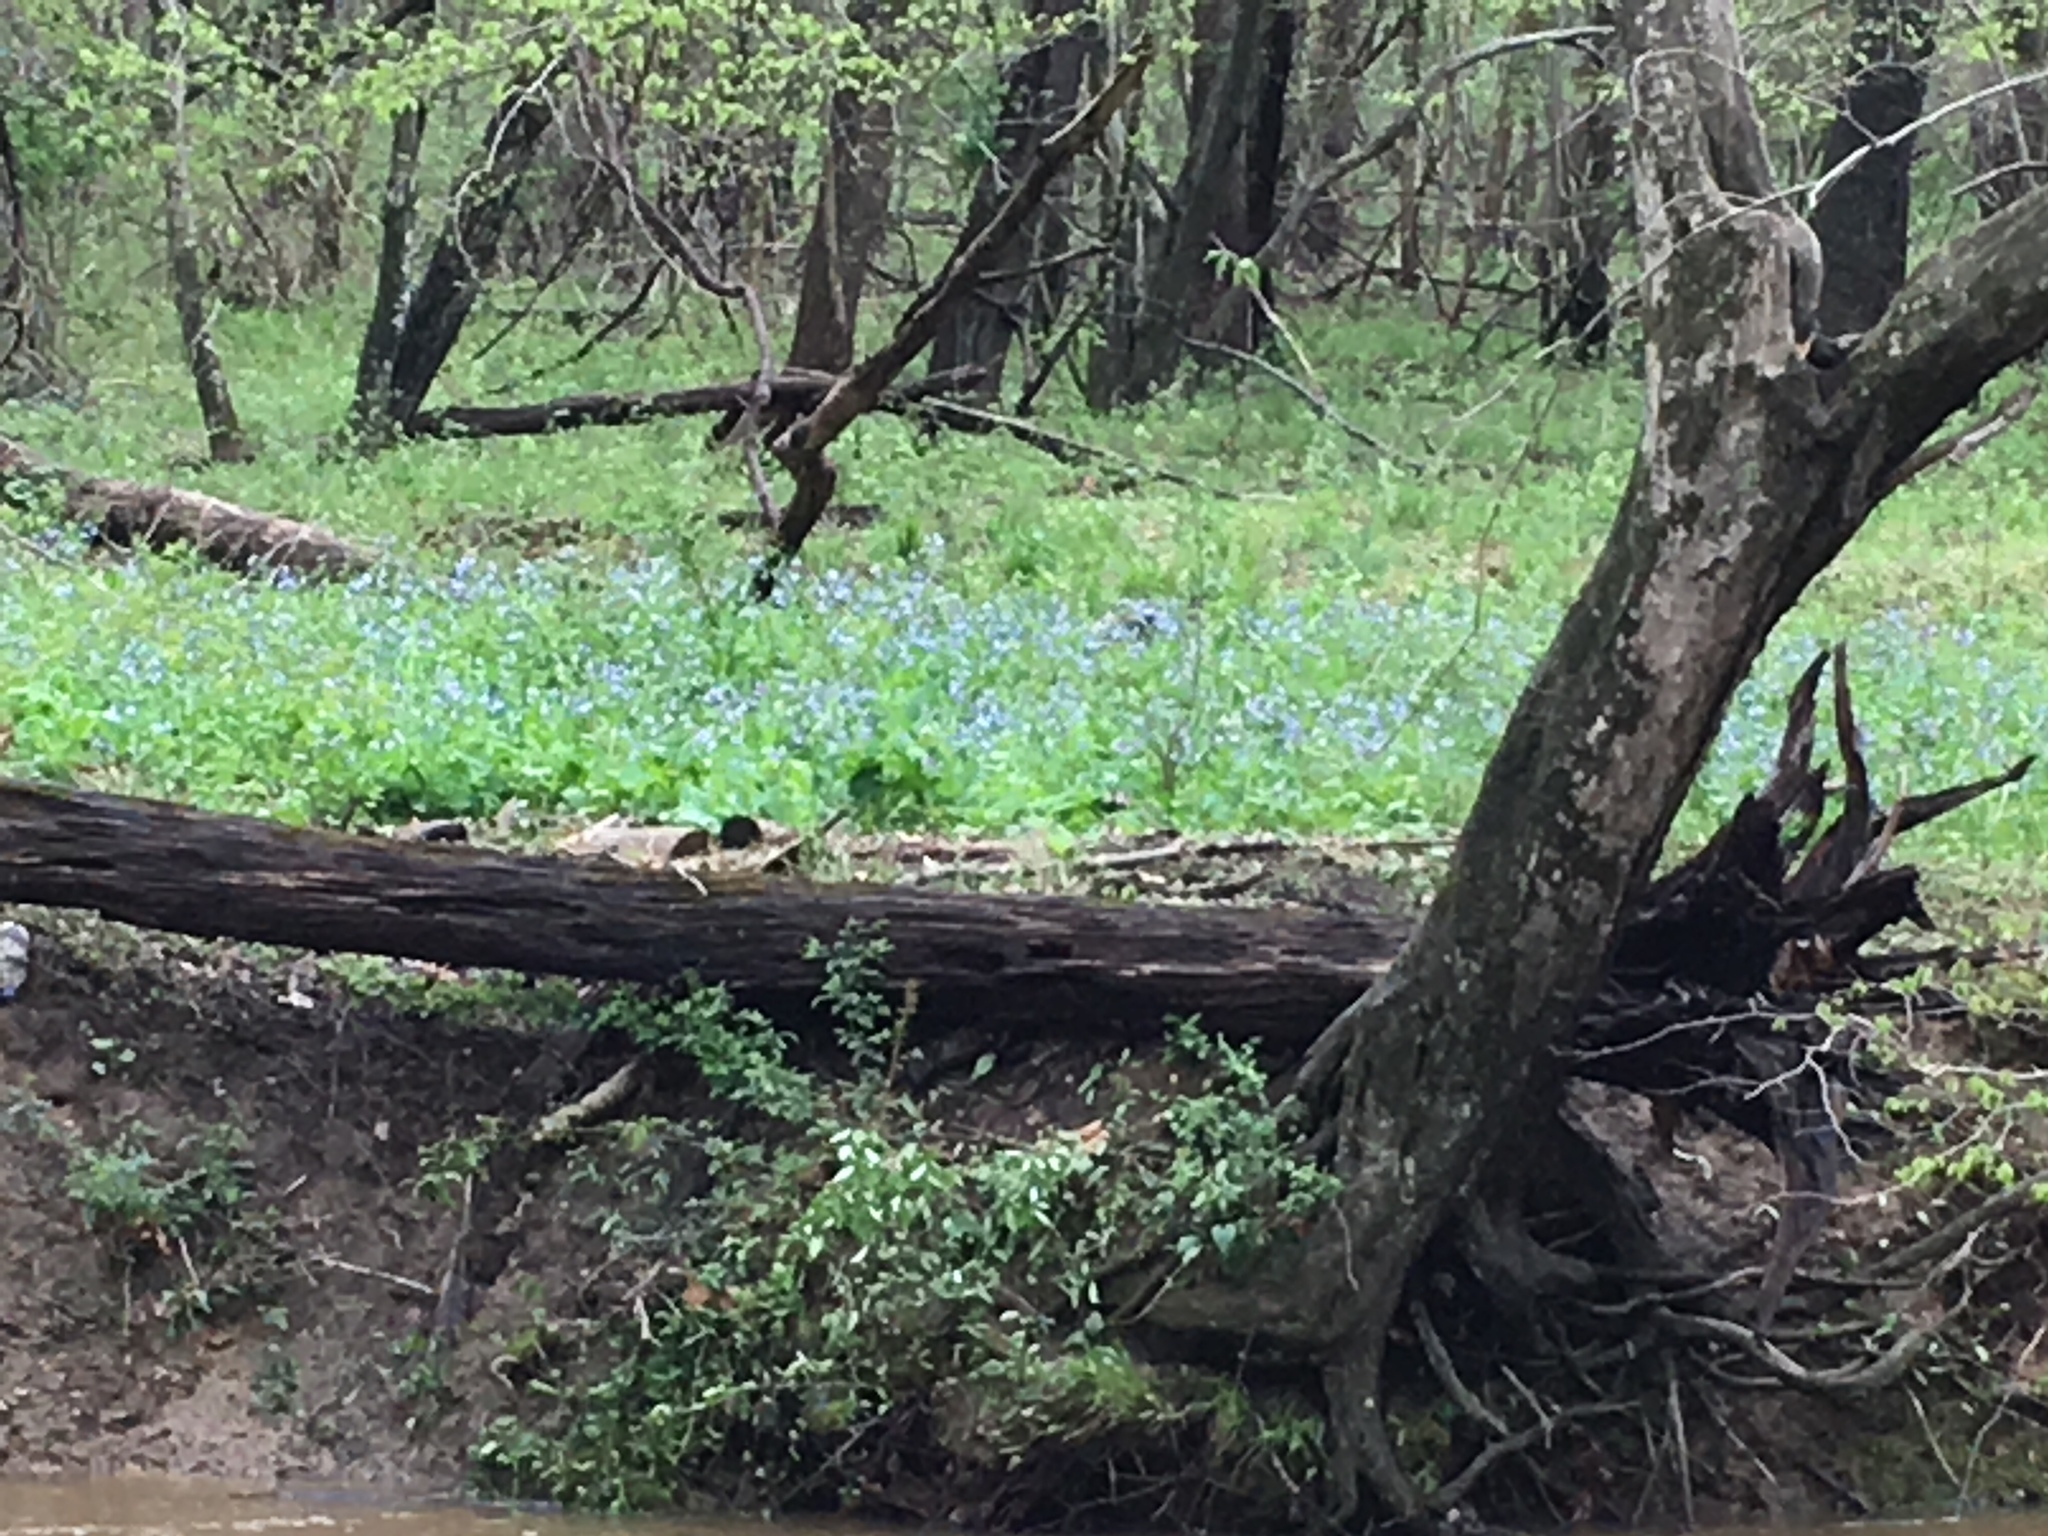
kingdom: Plantae
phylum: Tracheophyta
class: Magnoliopsida
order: Boraginales
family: Boraginaceae
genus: Mertensia
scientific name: Mertensia virginica
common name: Virginia bluebells
